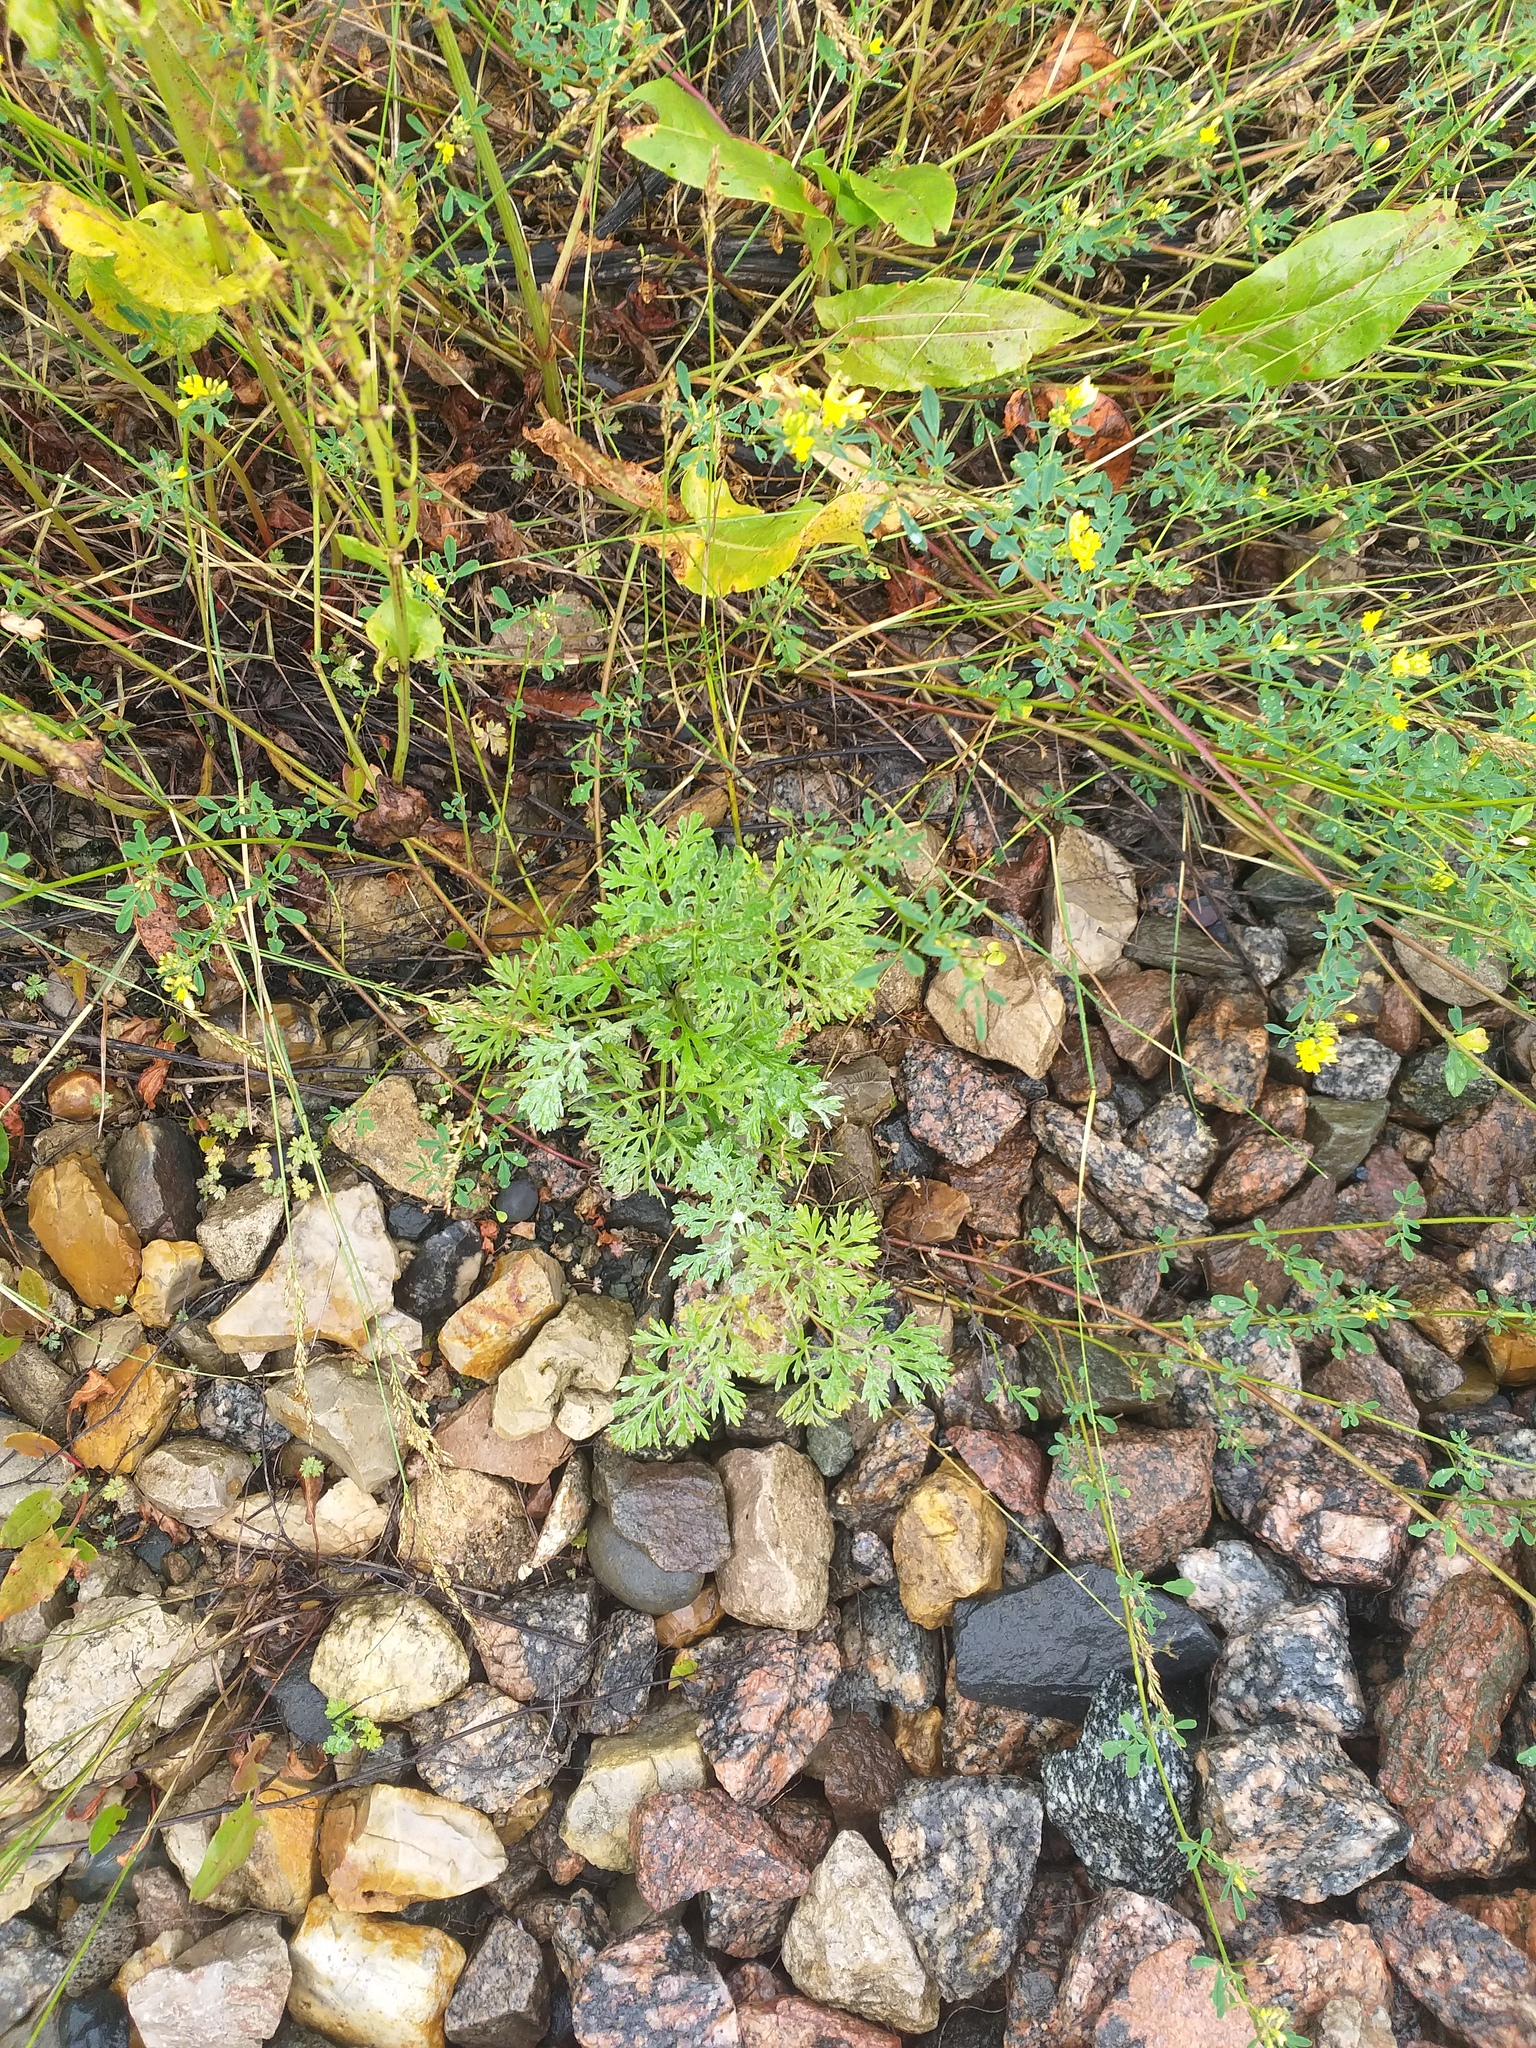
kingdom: Plantae
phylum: Tracheophyta
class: Magnoliopsida
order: Asterales
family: Asteraceae
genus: Artemisia
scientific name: Artemisia absinthium
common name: Wormwood
